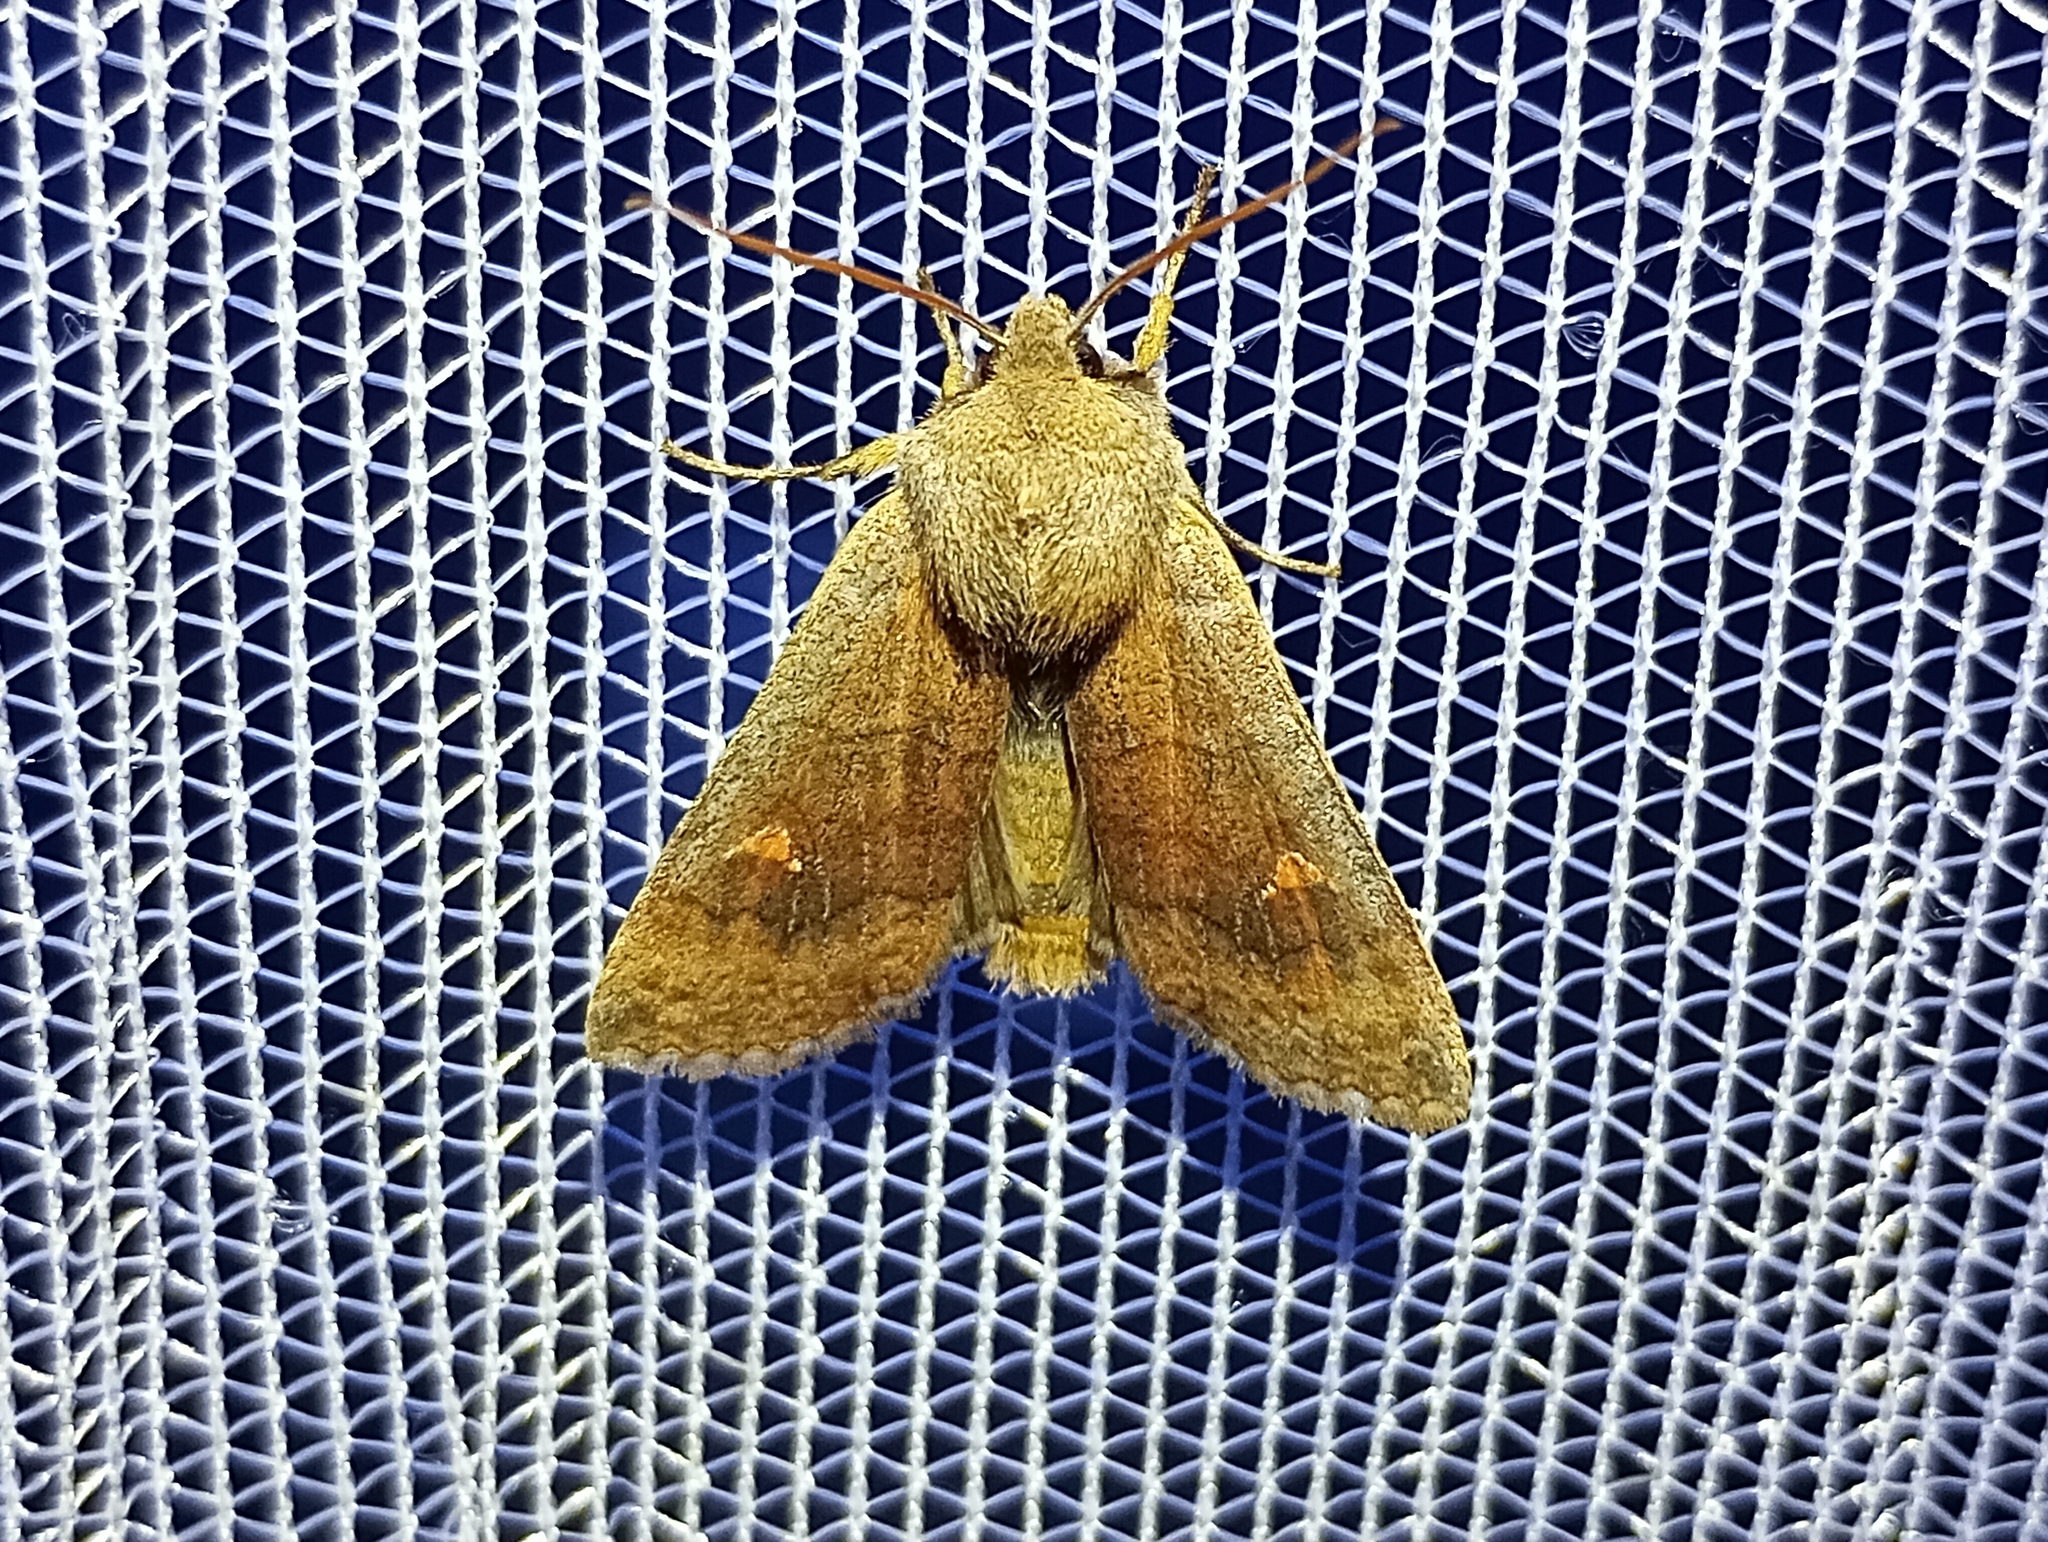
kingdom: Animalia
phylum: Arthropoda
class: Insecta
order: Lepidoptera
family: Noctuidae
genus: Eupsilia
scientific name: Eupsilia transversa
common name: Satellite
